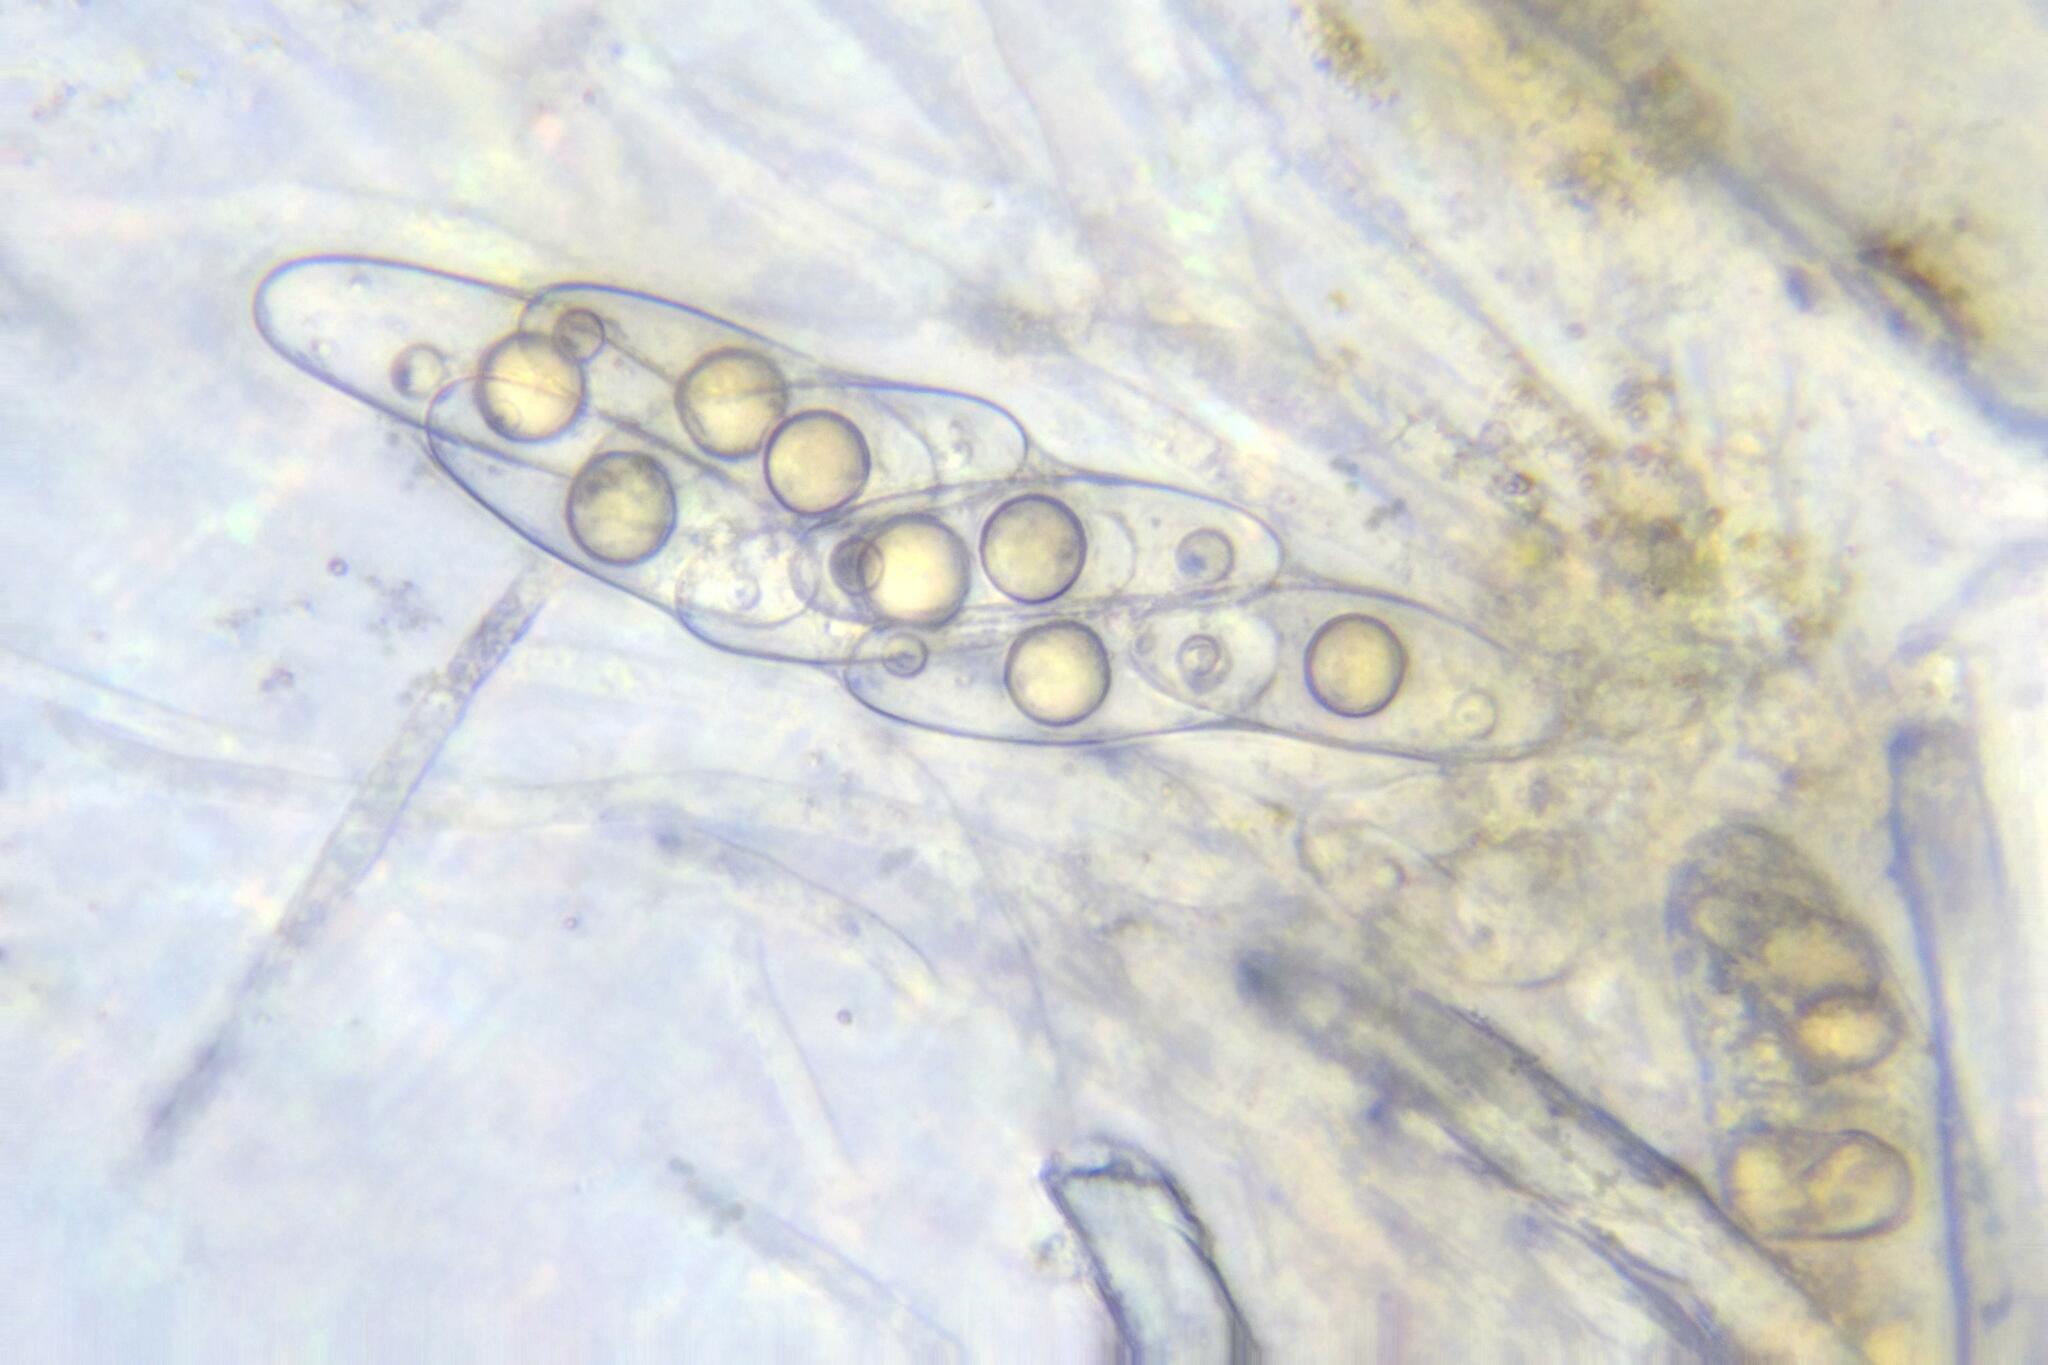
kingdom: Fungi
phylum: Ascomycota
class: Pezizomycetes
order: Pezizales
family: Pyronemataceae
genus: Octosporella
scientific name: Octosporella jungermanniarum
